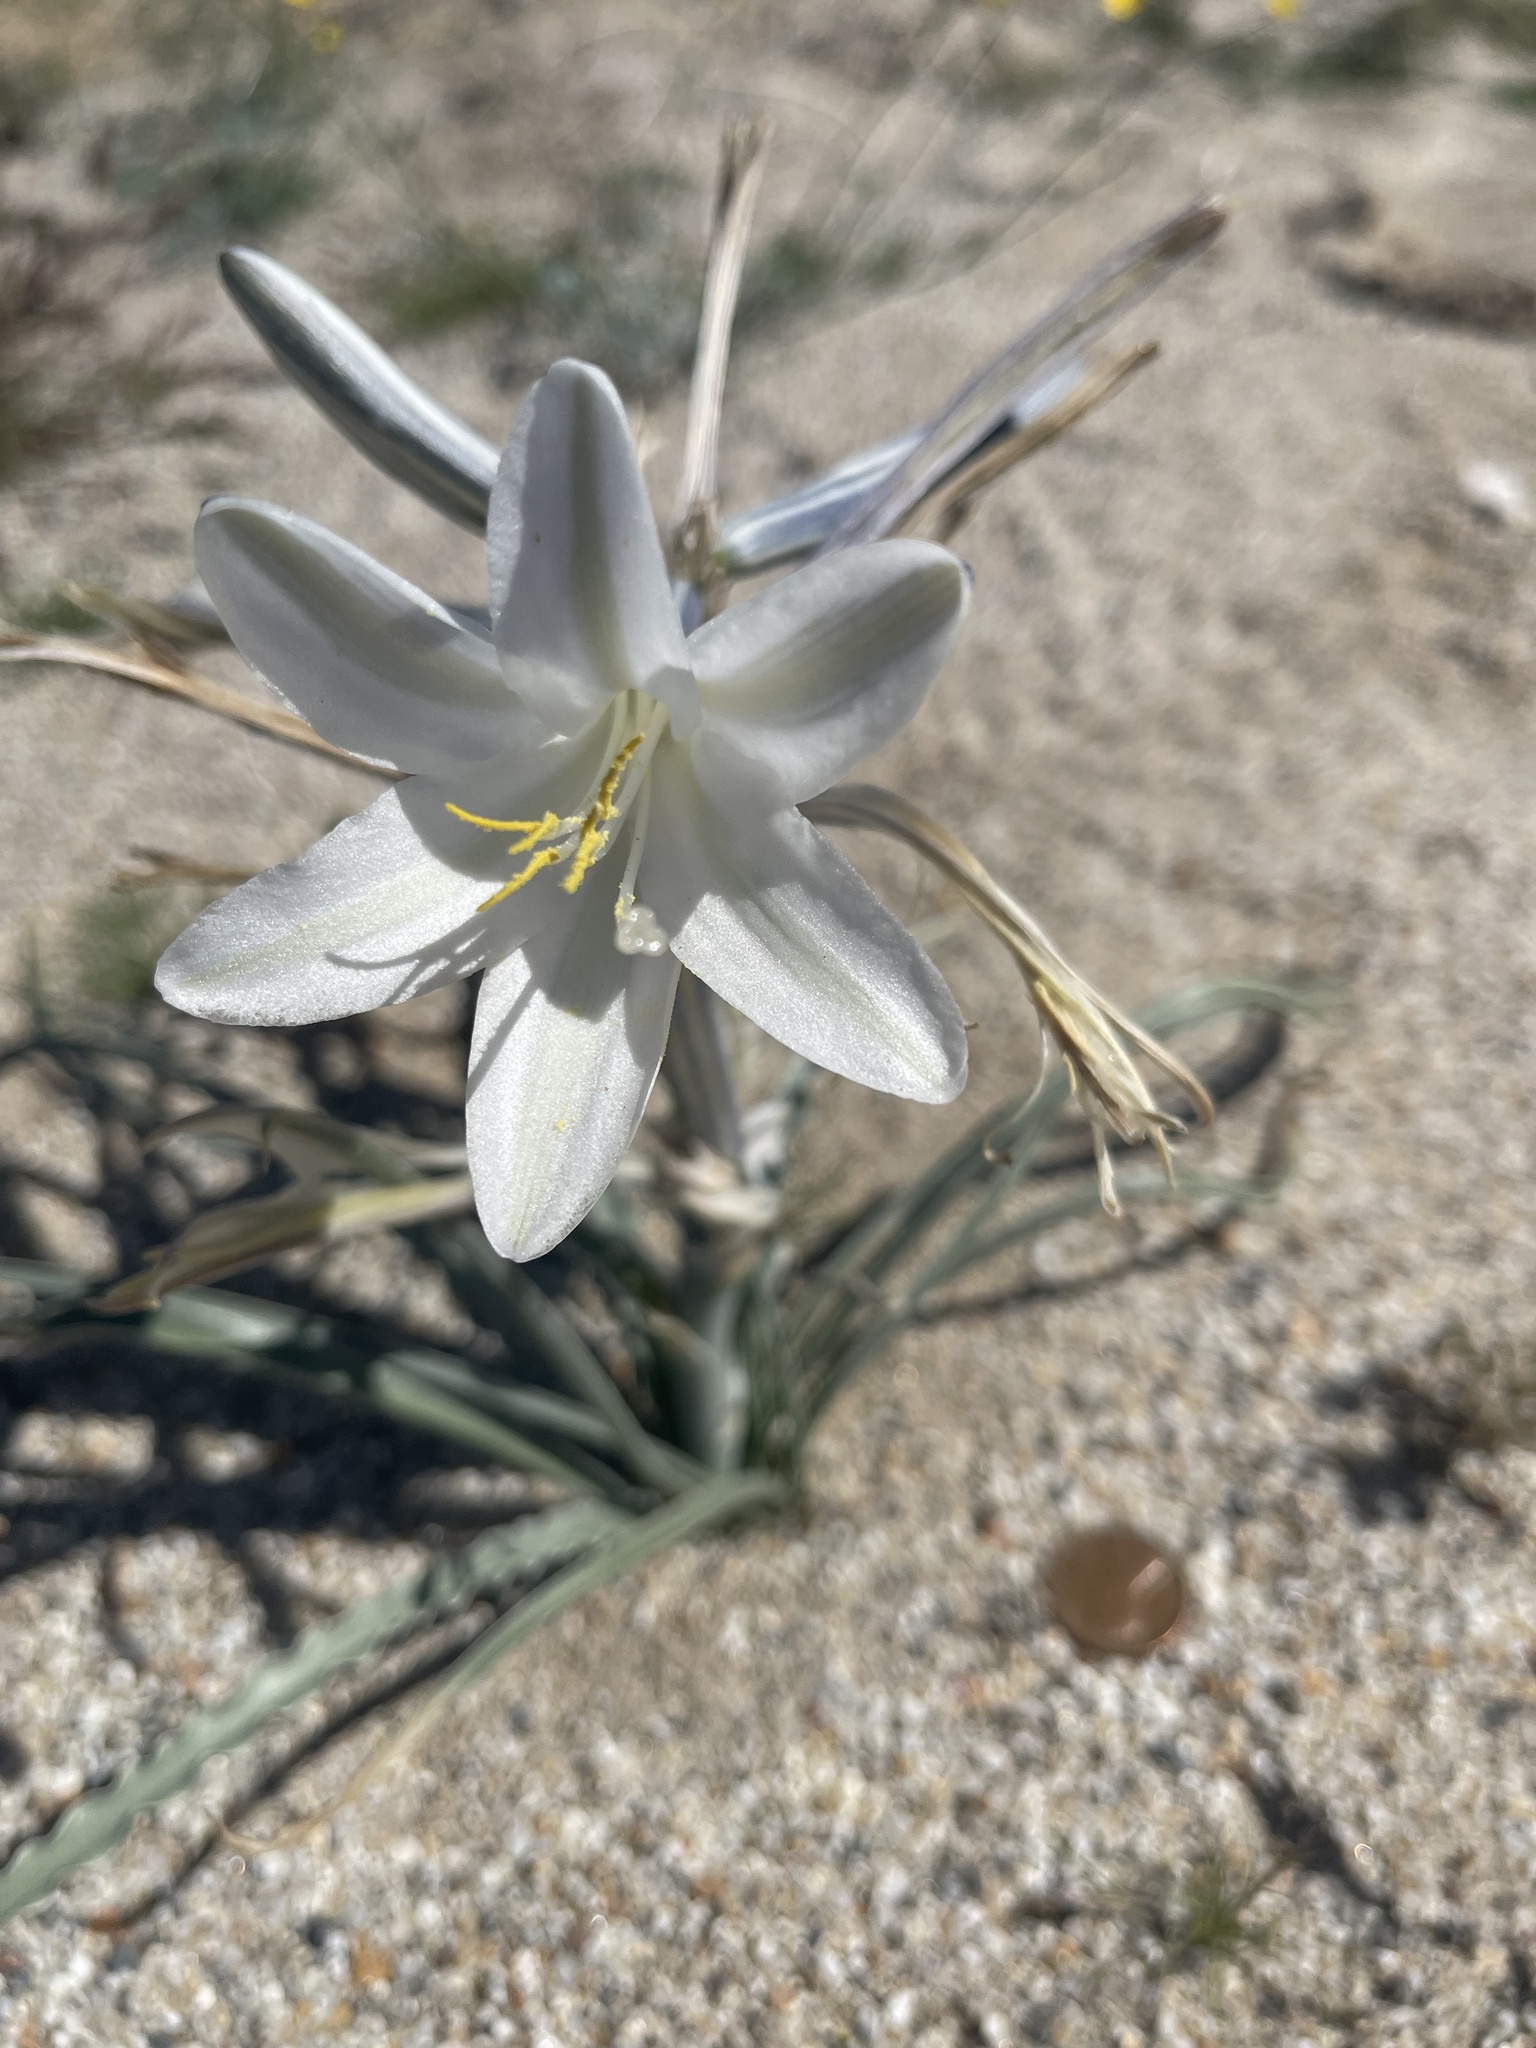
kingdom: Plantae
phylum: Tracheophyta
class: Liliopsida
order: Asparagales
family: Asparagaceae
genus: Hesperocallis
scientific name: Hesperocallis undulata
